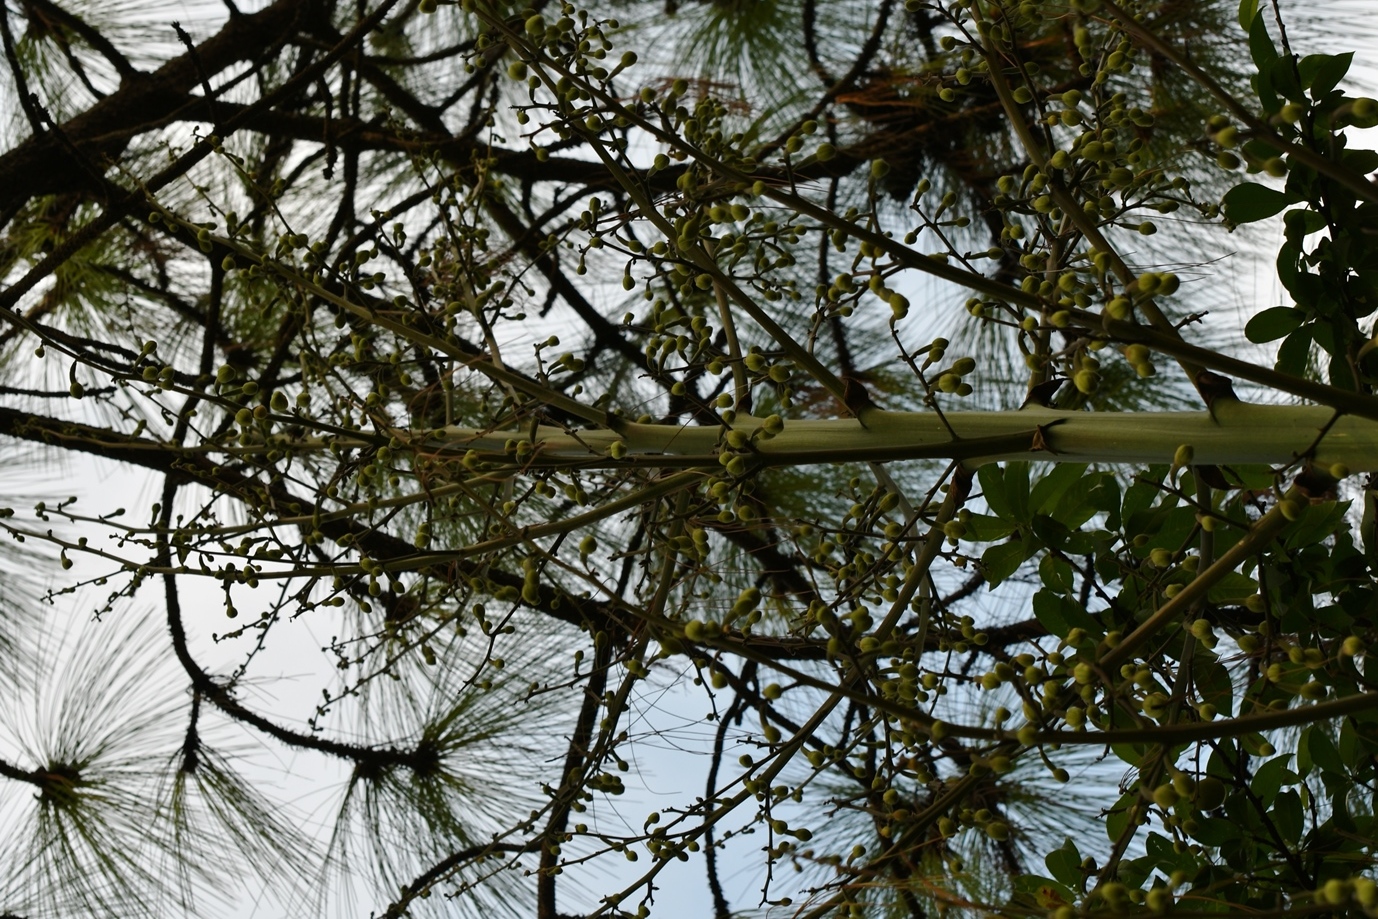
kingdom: Plantae
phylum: Tracheophyta
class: Liliopsida
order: Asparagales
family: Asparagaceae
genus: Furcraea
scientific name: Furcraea cabuya
